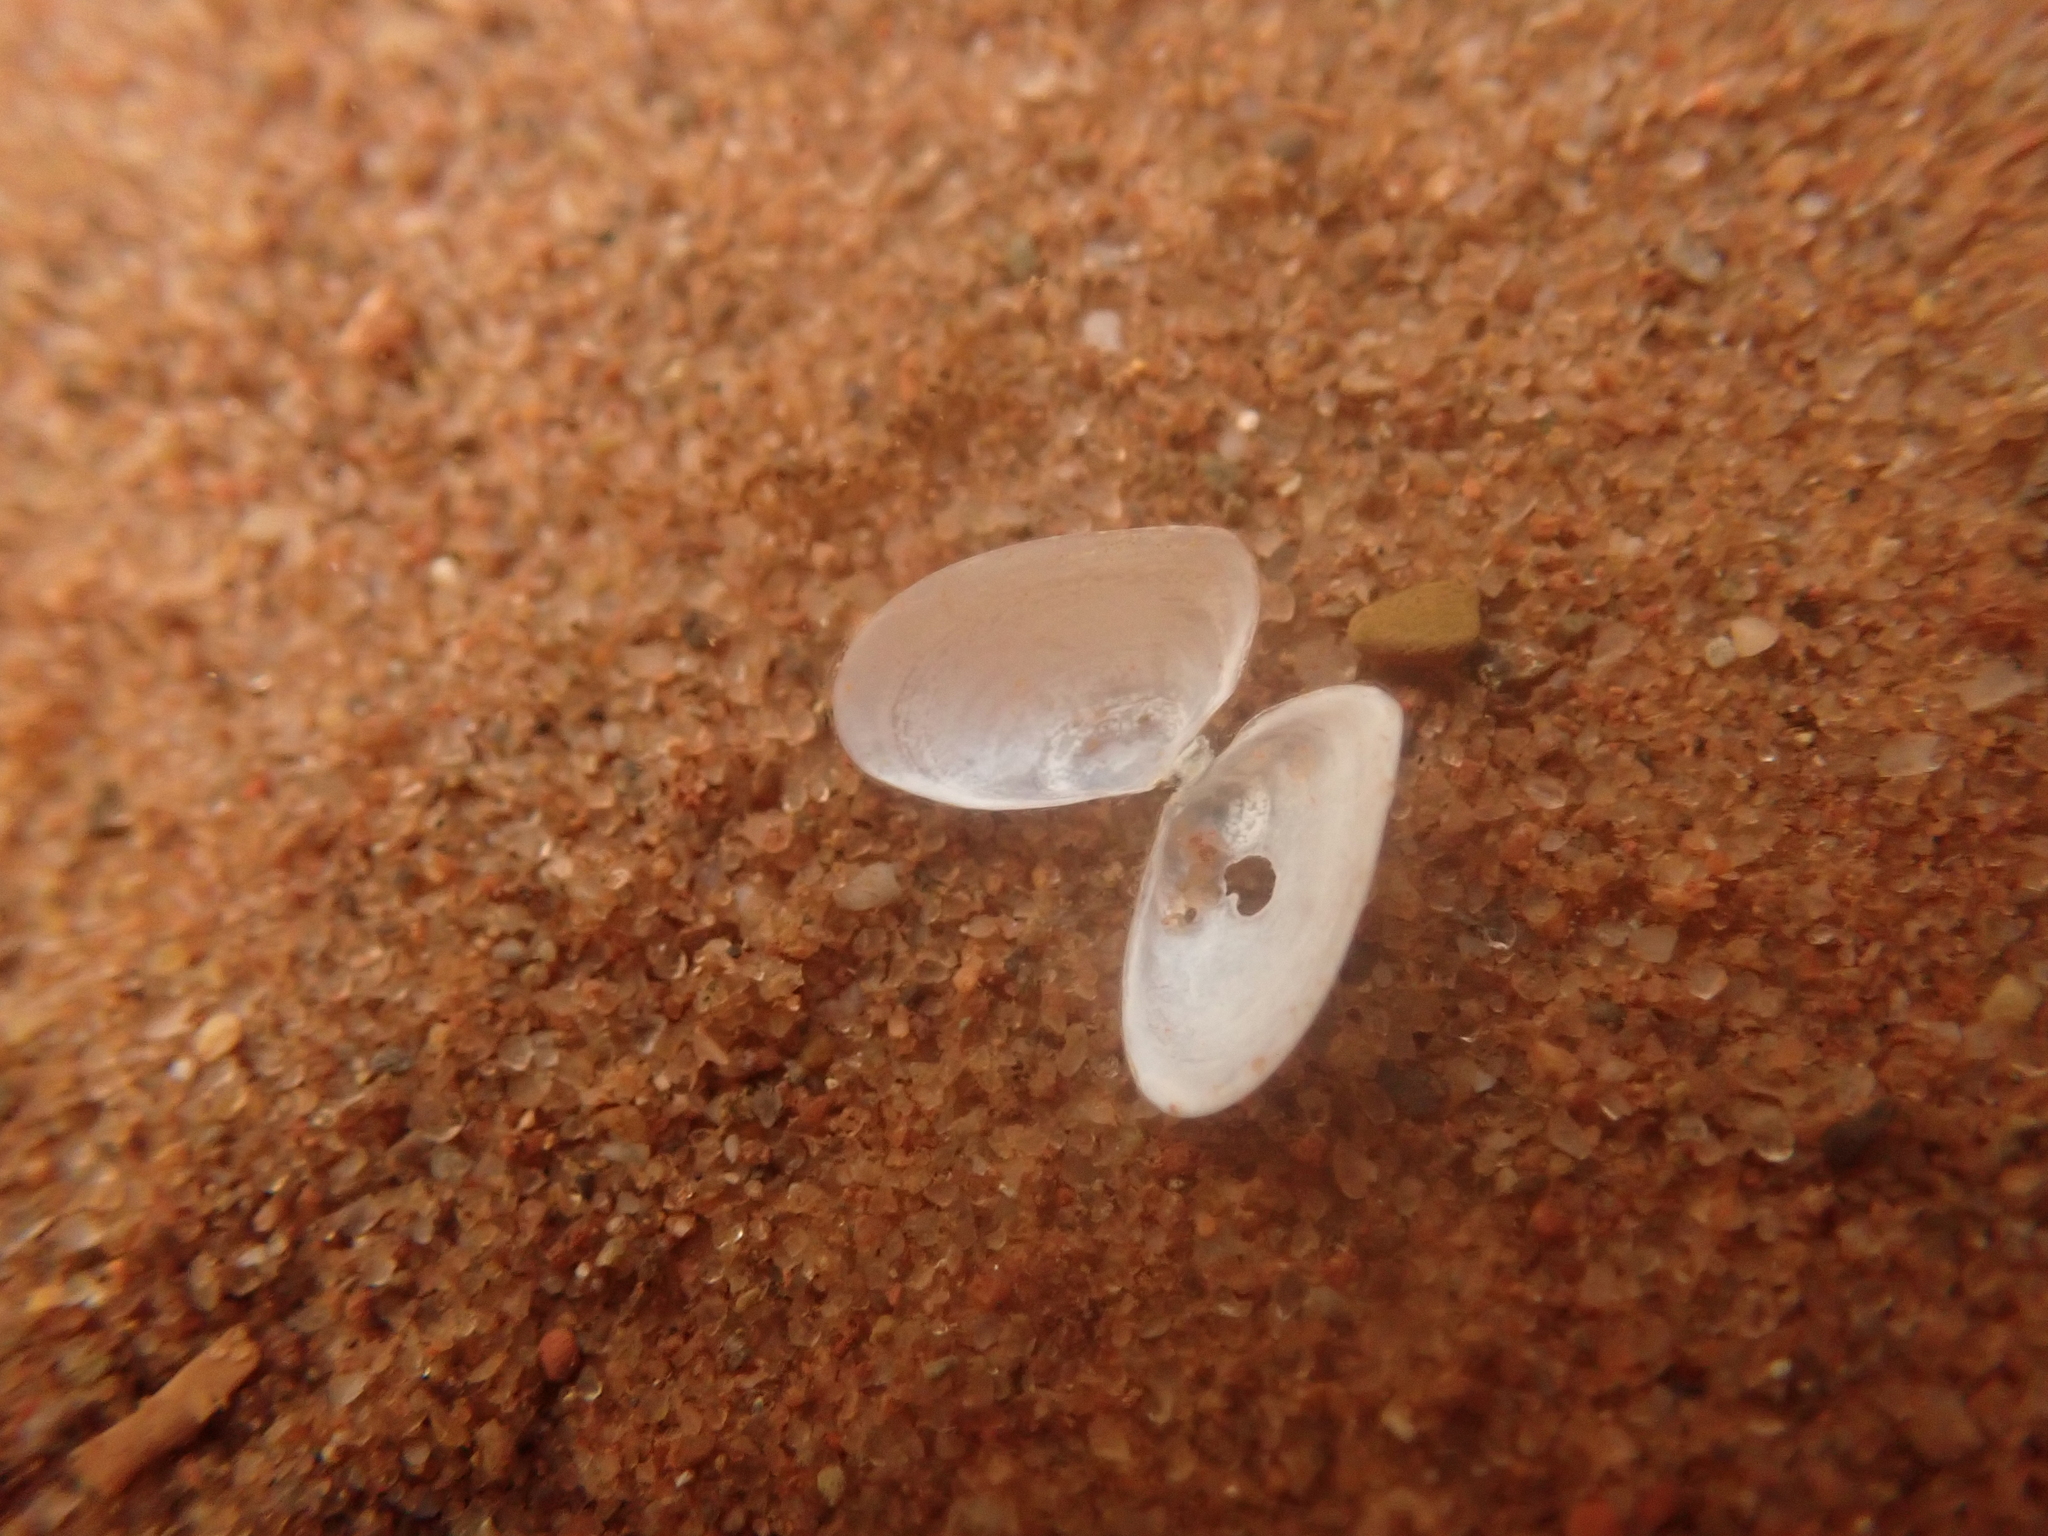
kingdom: Animalia
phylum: Mollusca
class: Bivalvia
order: Cardiida
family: Tellinidae
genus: Ameritella
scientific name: Ameritella agilis
